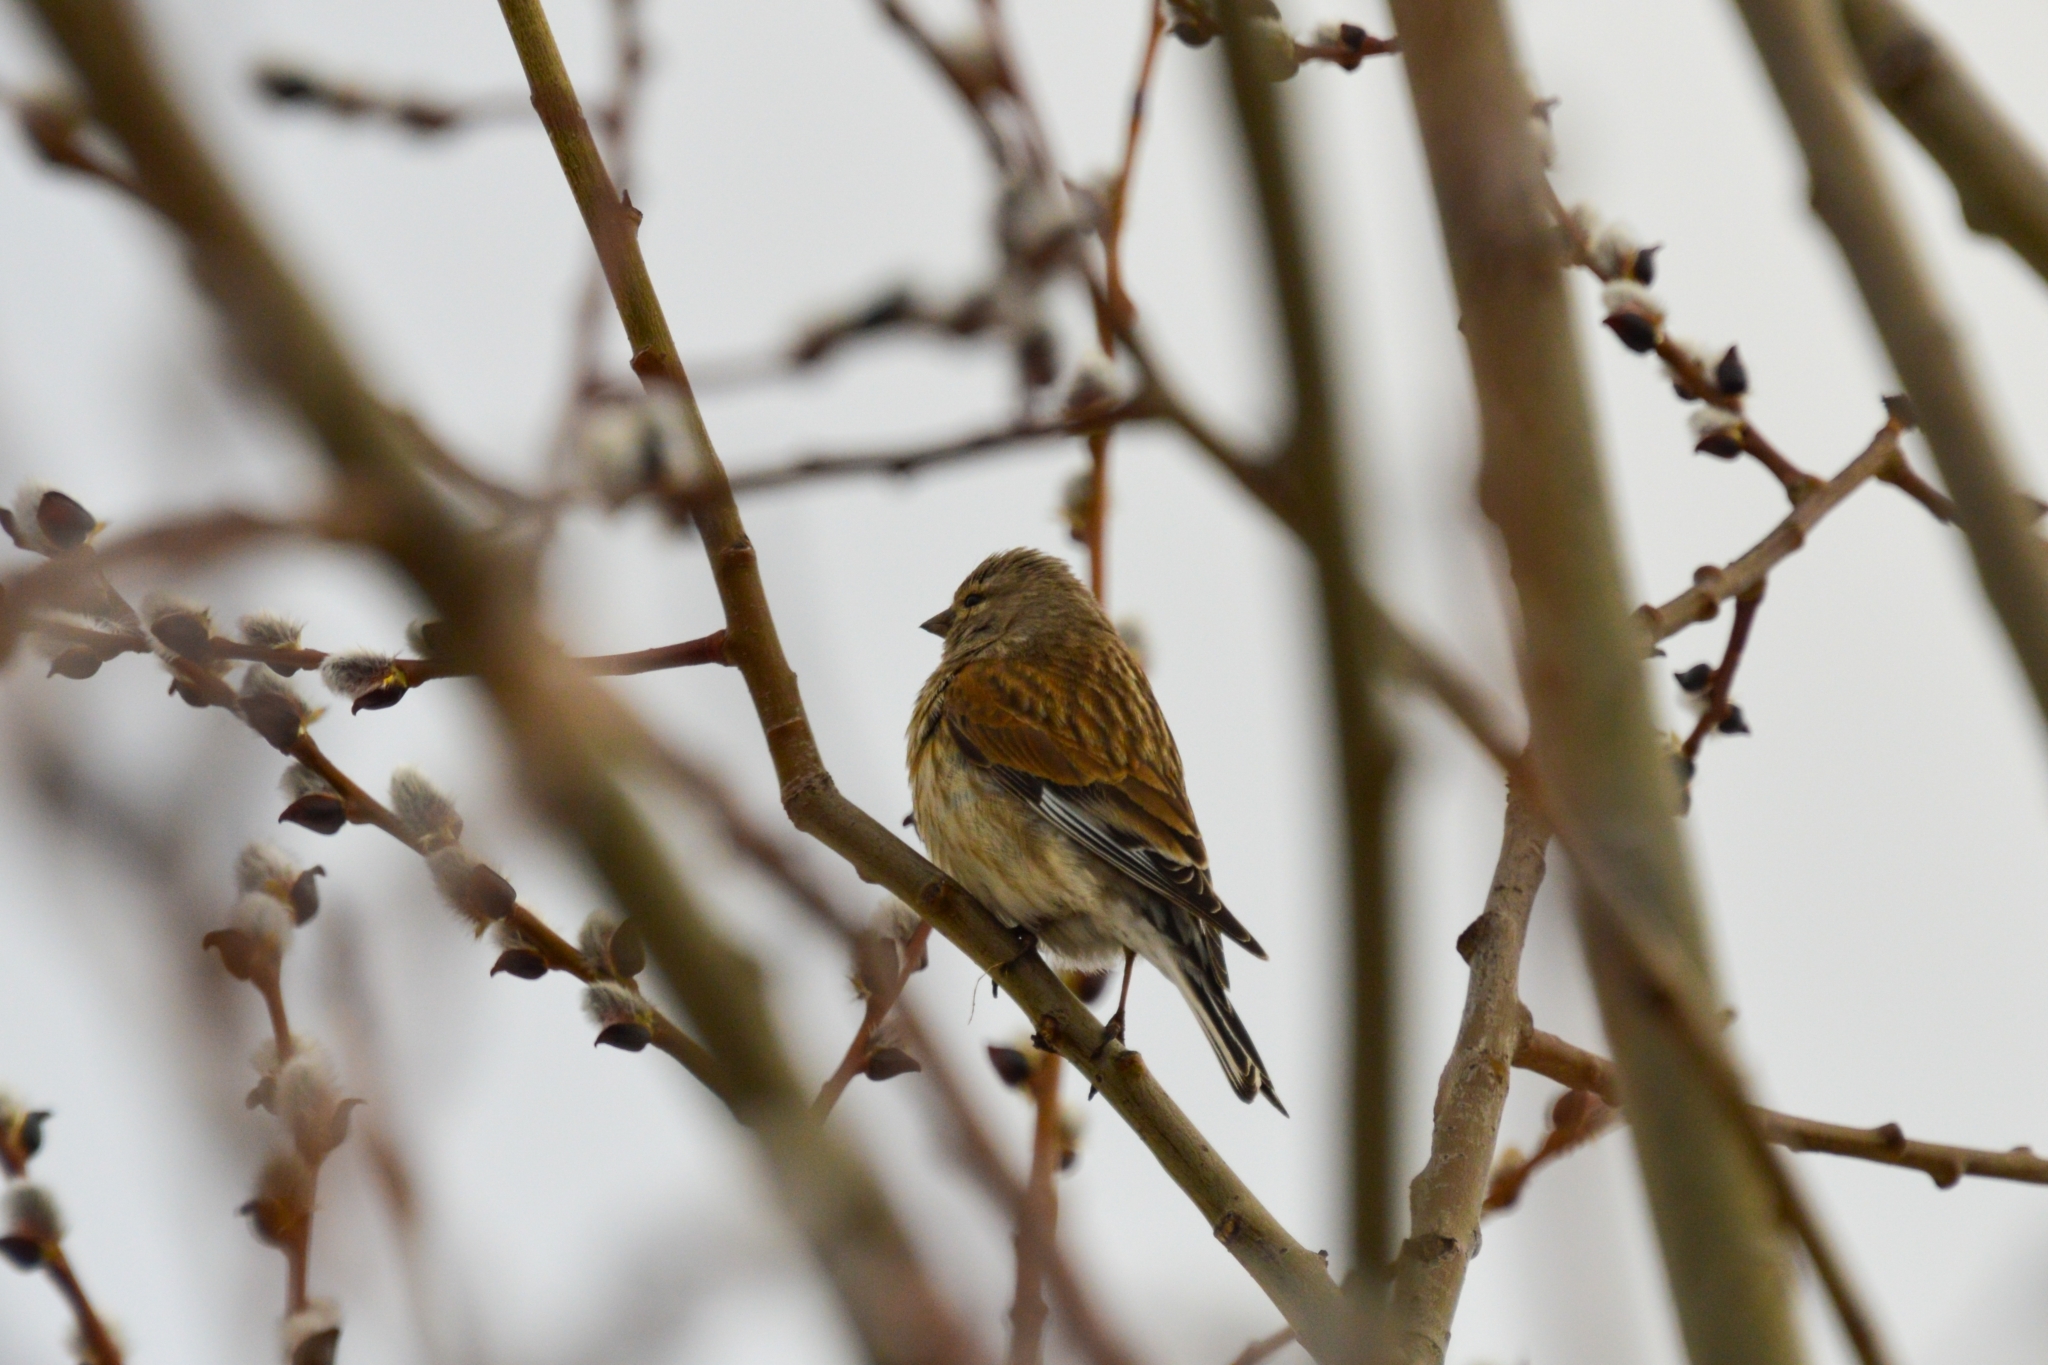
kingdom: Animalia
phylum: Chordata
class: Aves
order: Passeriformes
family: Fringillidae
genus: Linaria
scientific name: Linaria cannabina
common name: Common linnet
